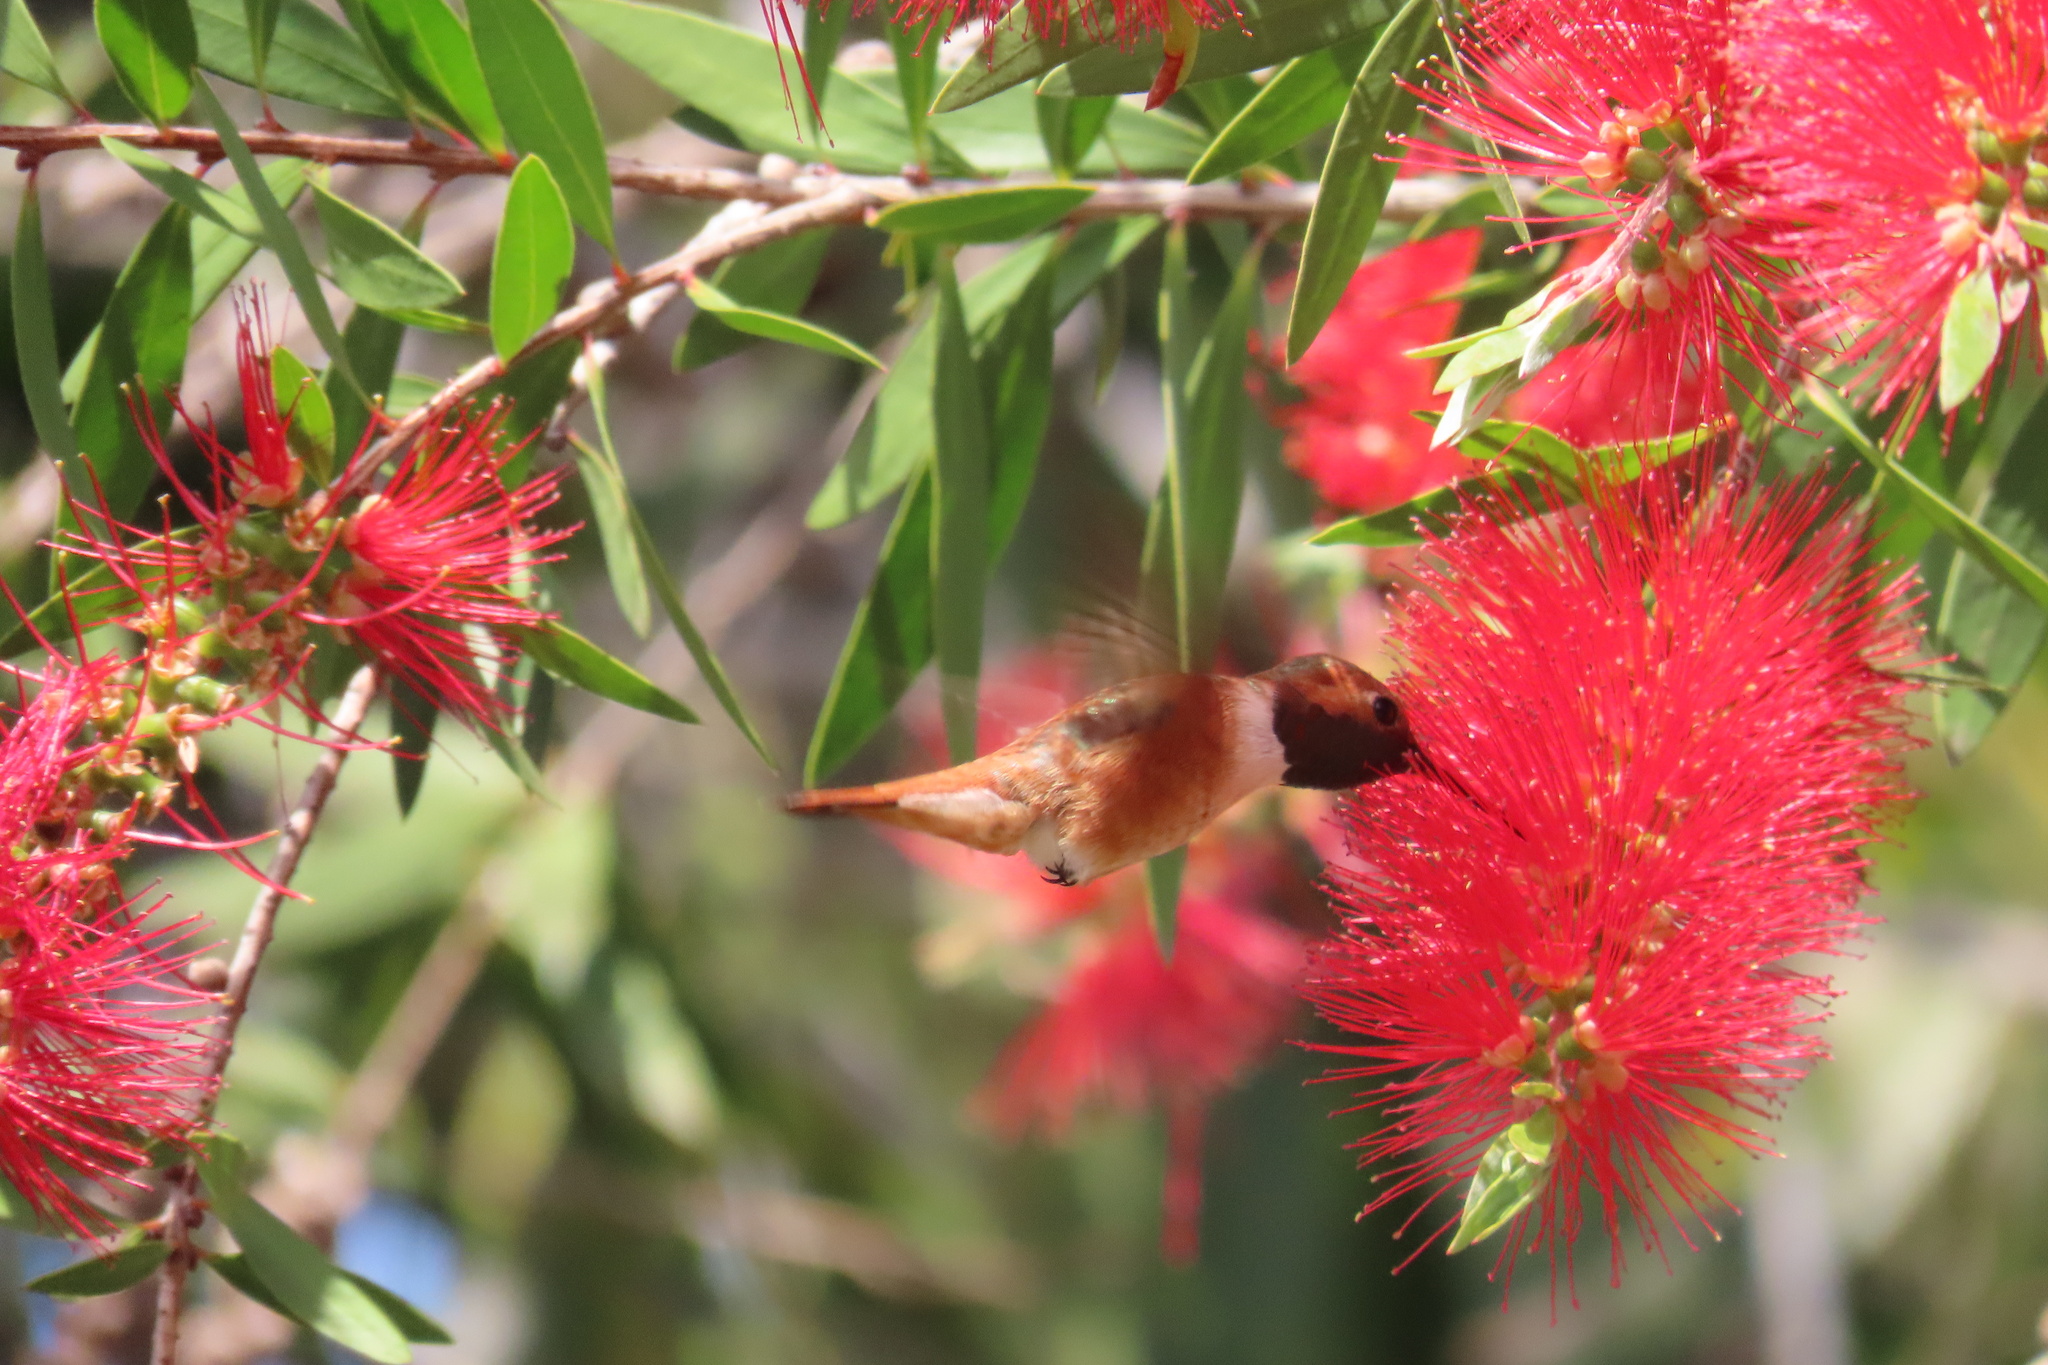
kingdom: Animalia
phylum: Chordata
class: Aves
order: Apodiformes
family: Trochilidae
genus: Selasphorus
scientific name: Selasphorus rufus
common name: Rufous hummingbird
